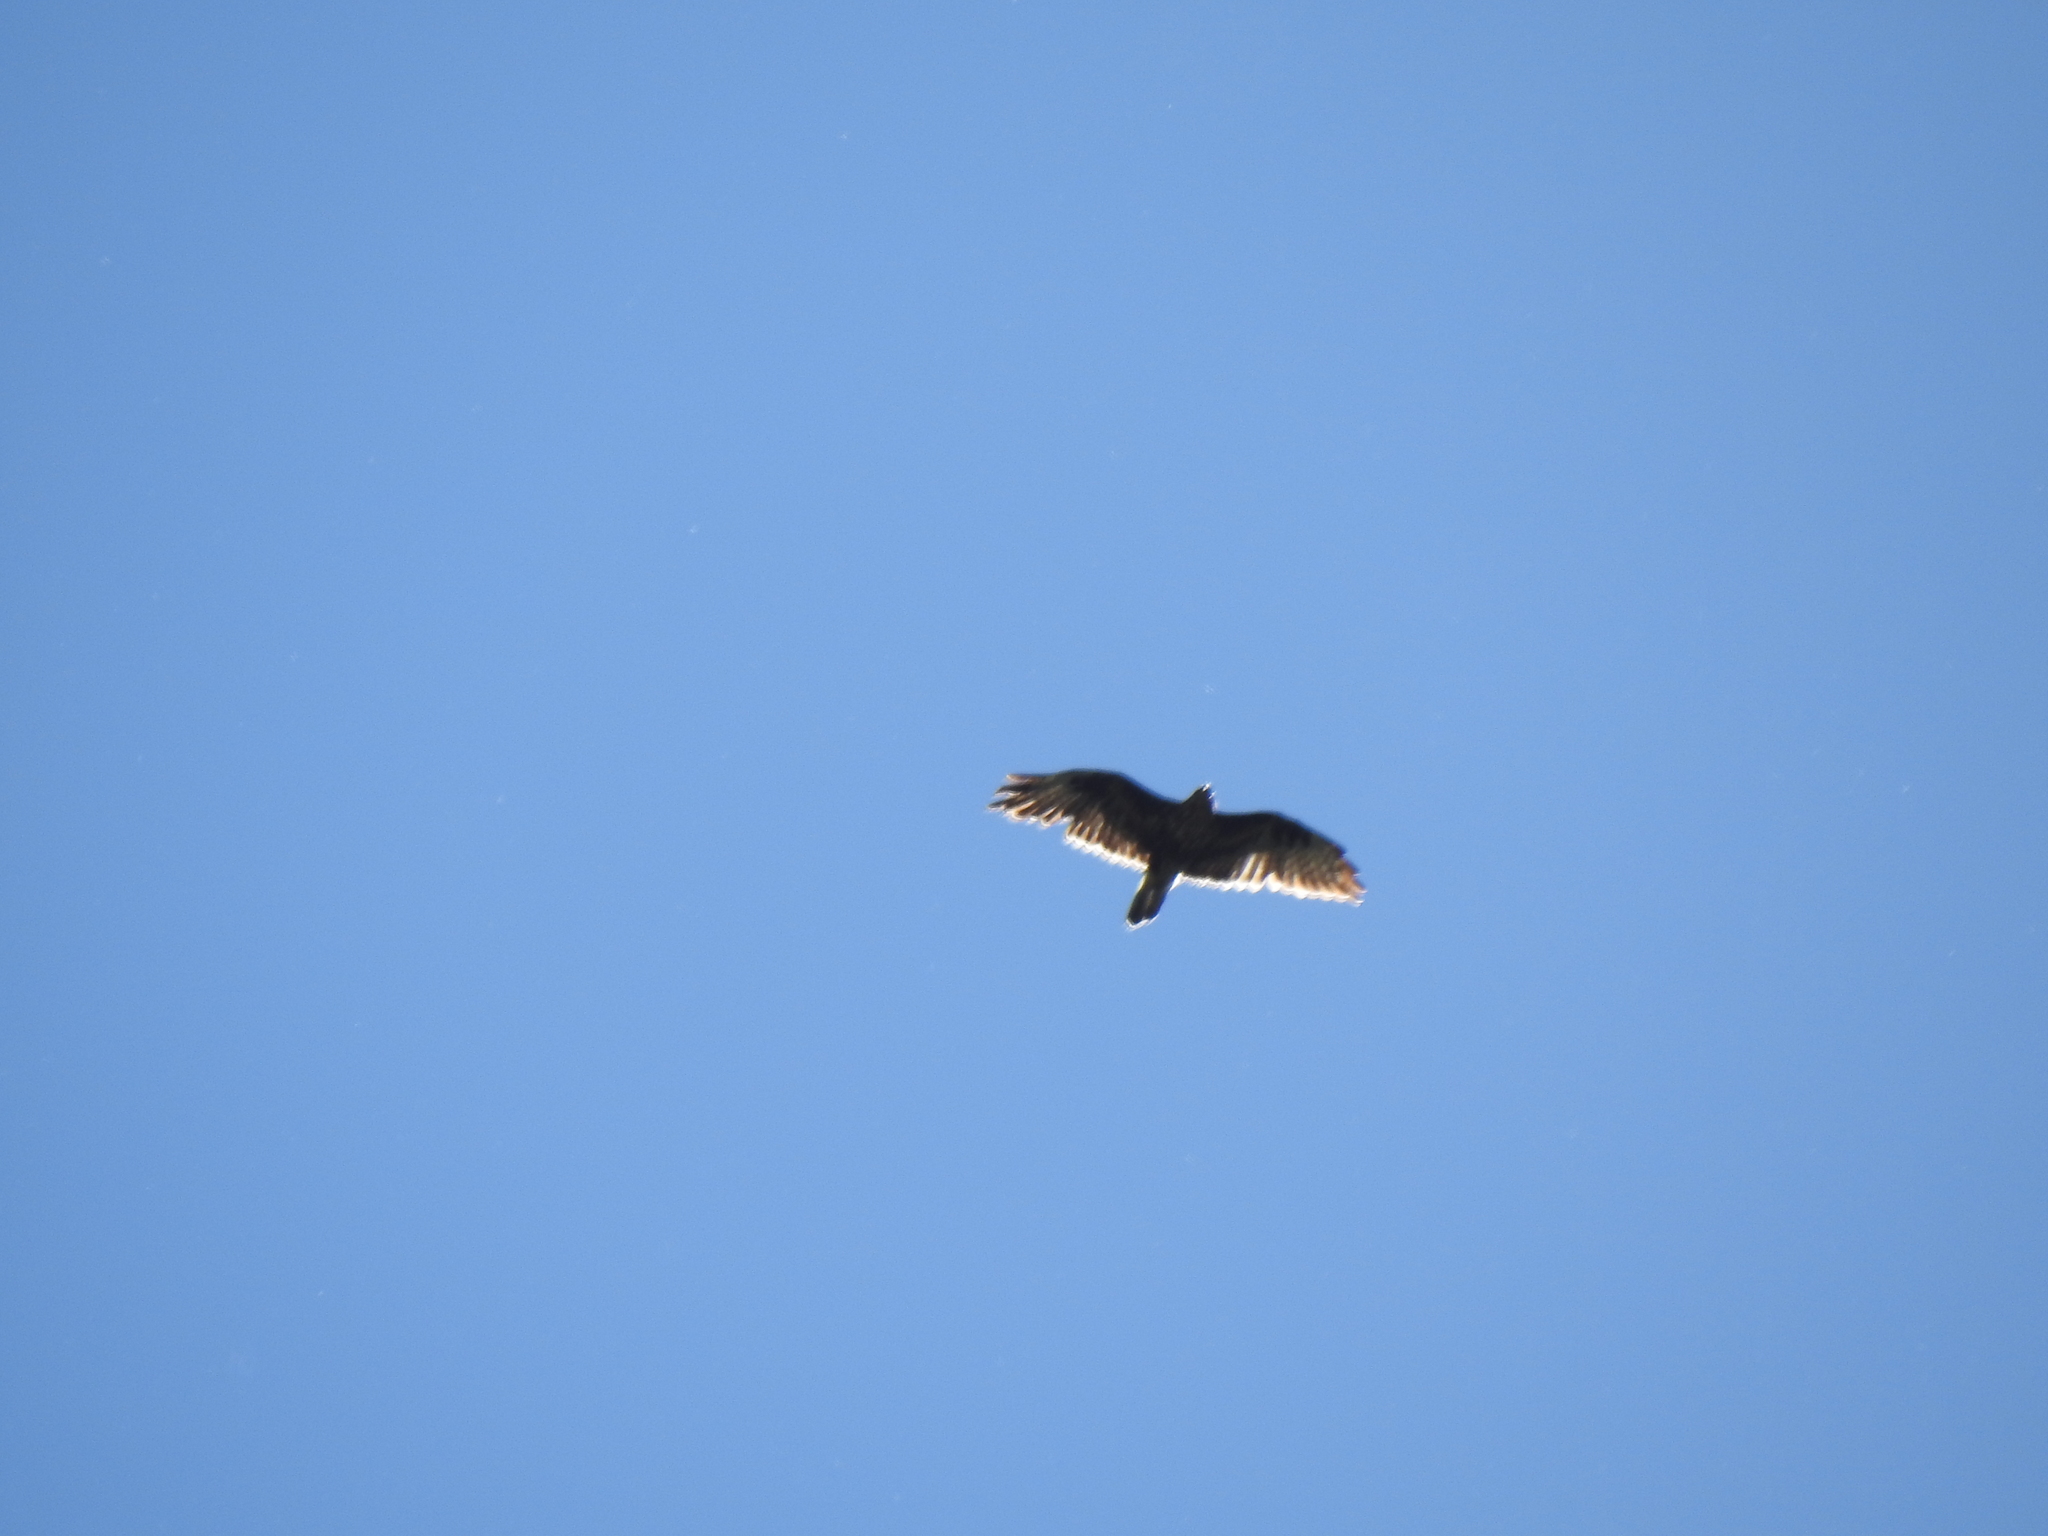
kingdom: Animalia
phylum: Chordata
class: Aves
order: Accipitriformes
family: Accipitridae
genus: Buteo
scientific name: Buteo buteo
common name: Common buzzard
